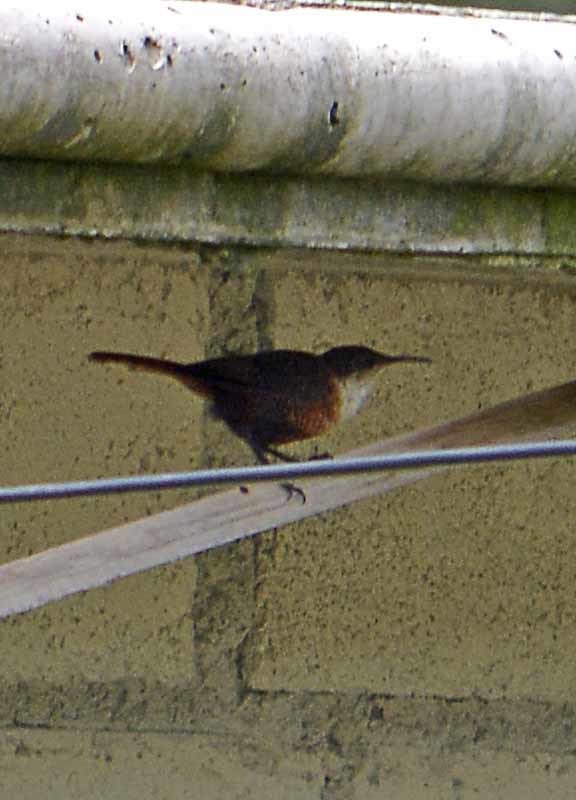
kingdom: Animalia
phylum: Chordata
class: Aves
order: Passeriformes
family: Troglodytidae
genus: Catherpes
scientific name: Catherpes mexicanus
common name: Canyon wren
